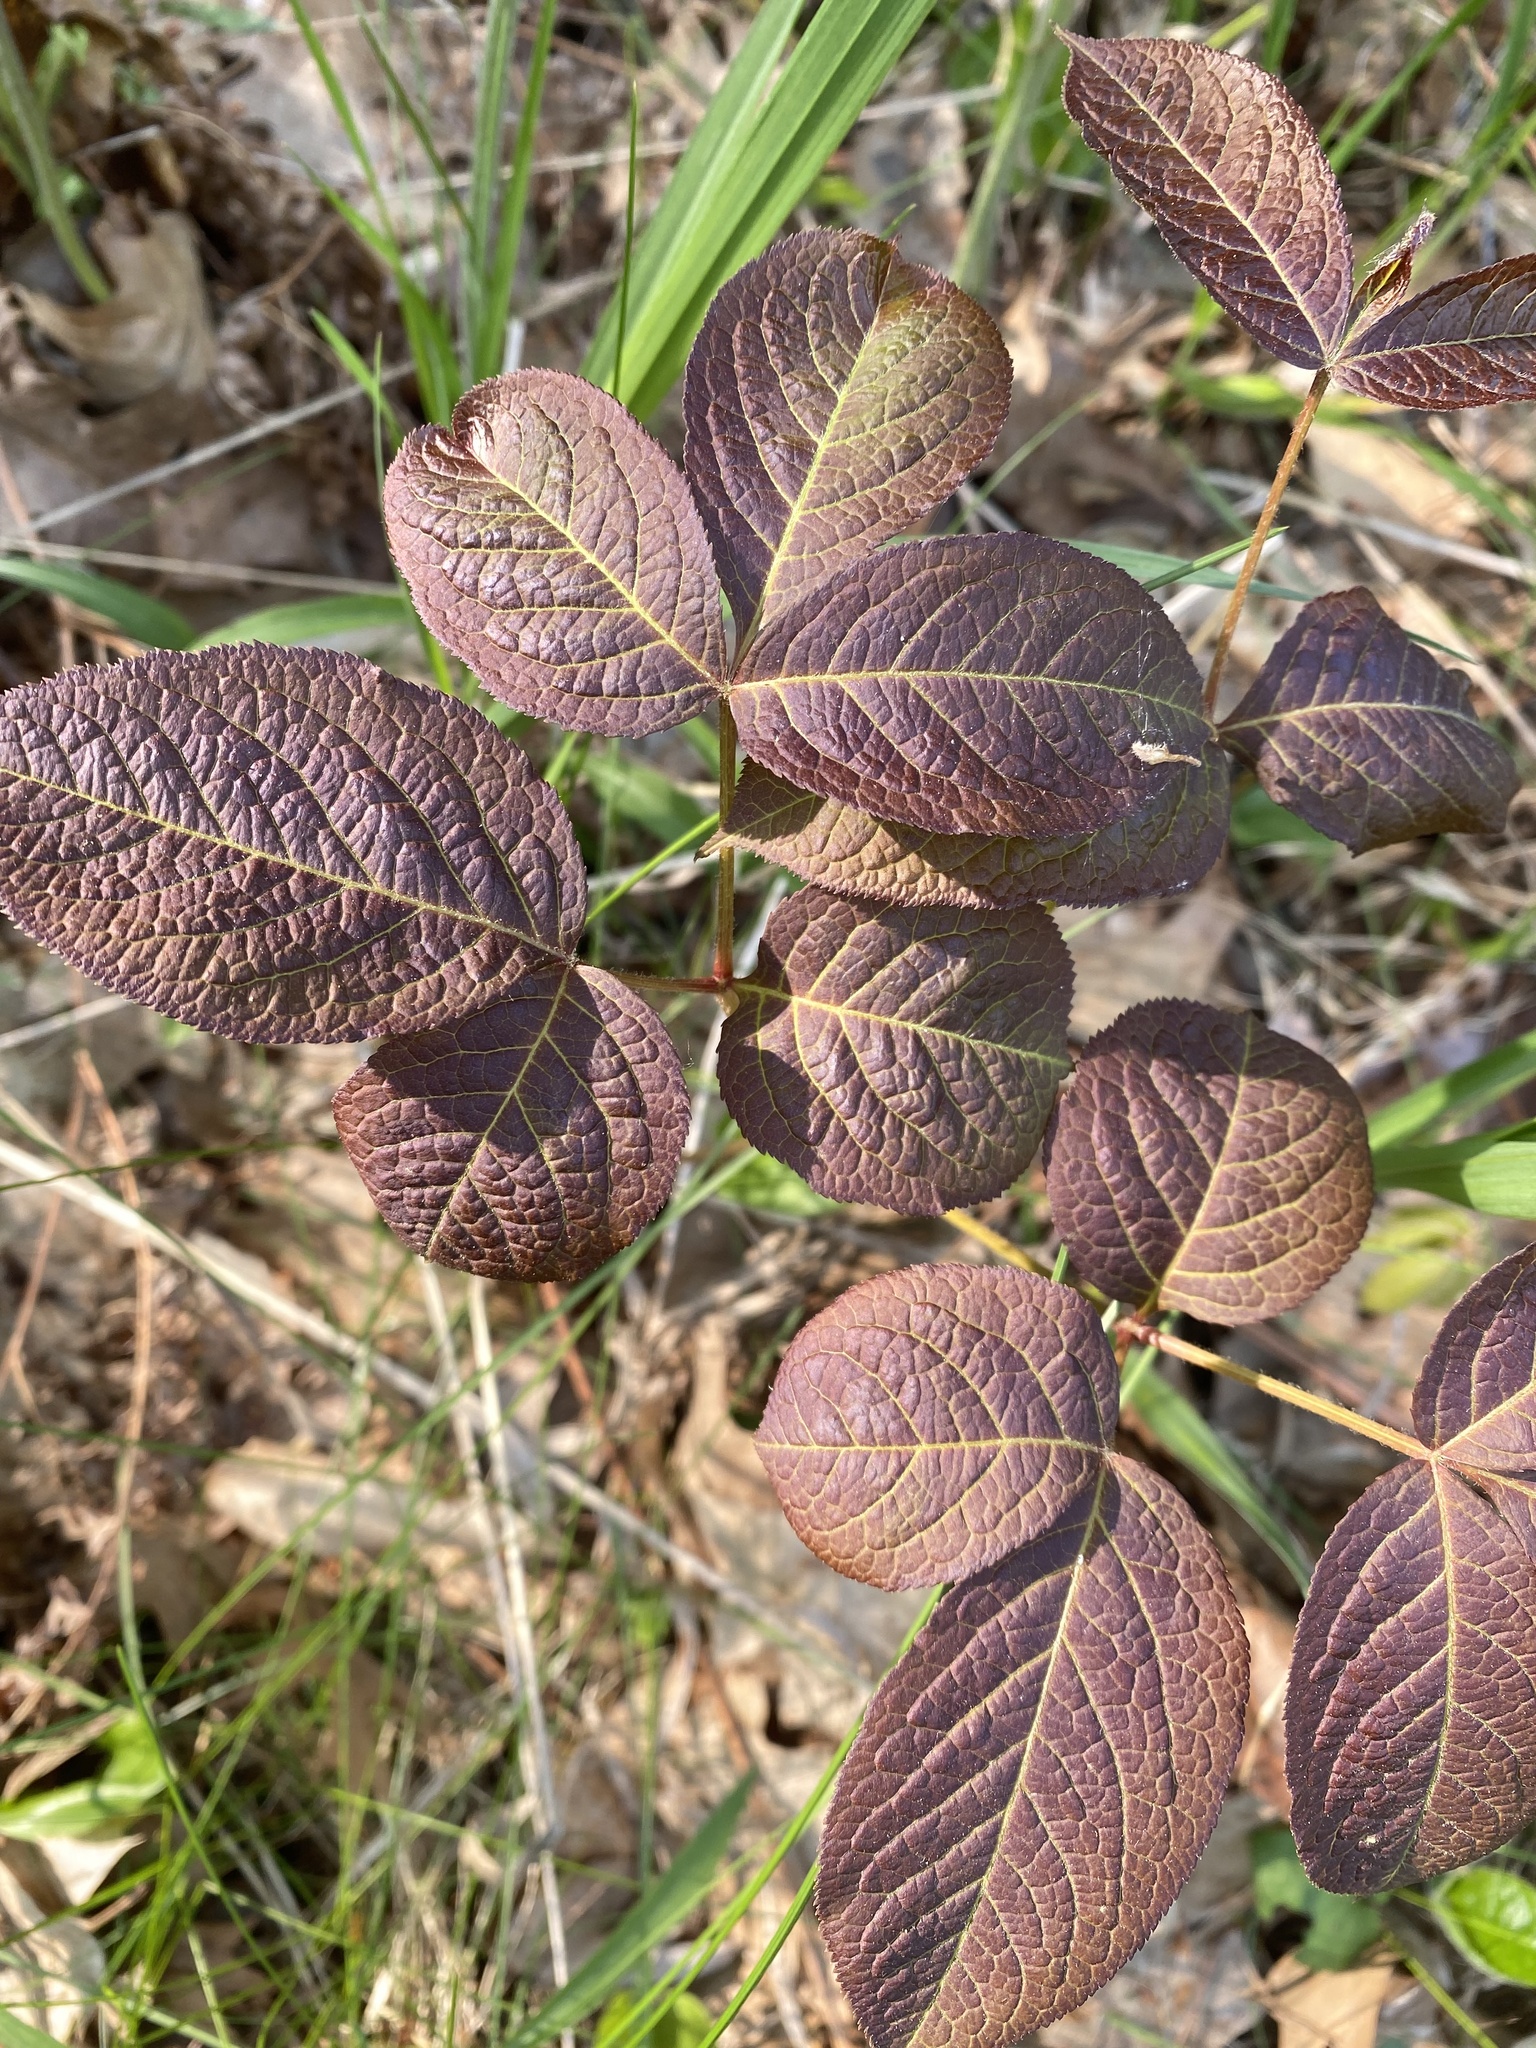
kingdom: Plantae
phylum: Tracheophyta
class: Magnoliopsida
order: Apiales
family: Araliaceae
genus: Aralia
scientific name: Aralia nudicaulis
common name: Wild sarsaparilla
